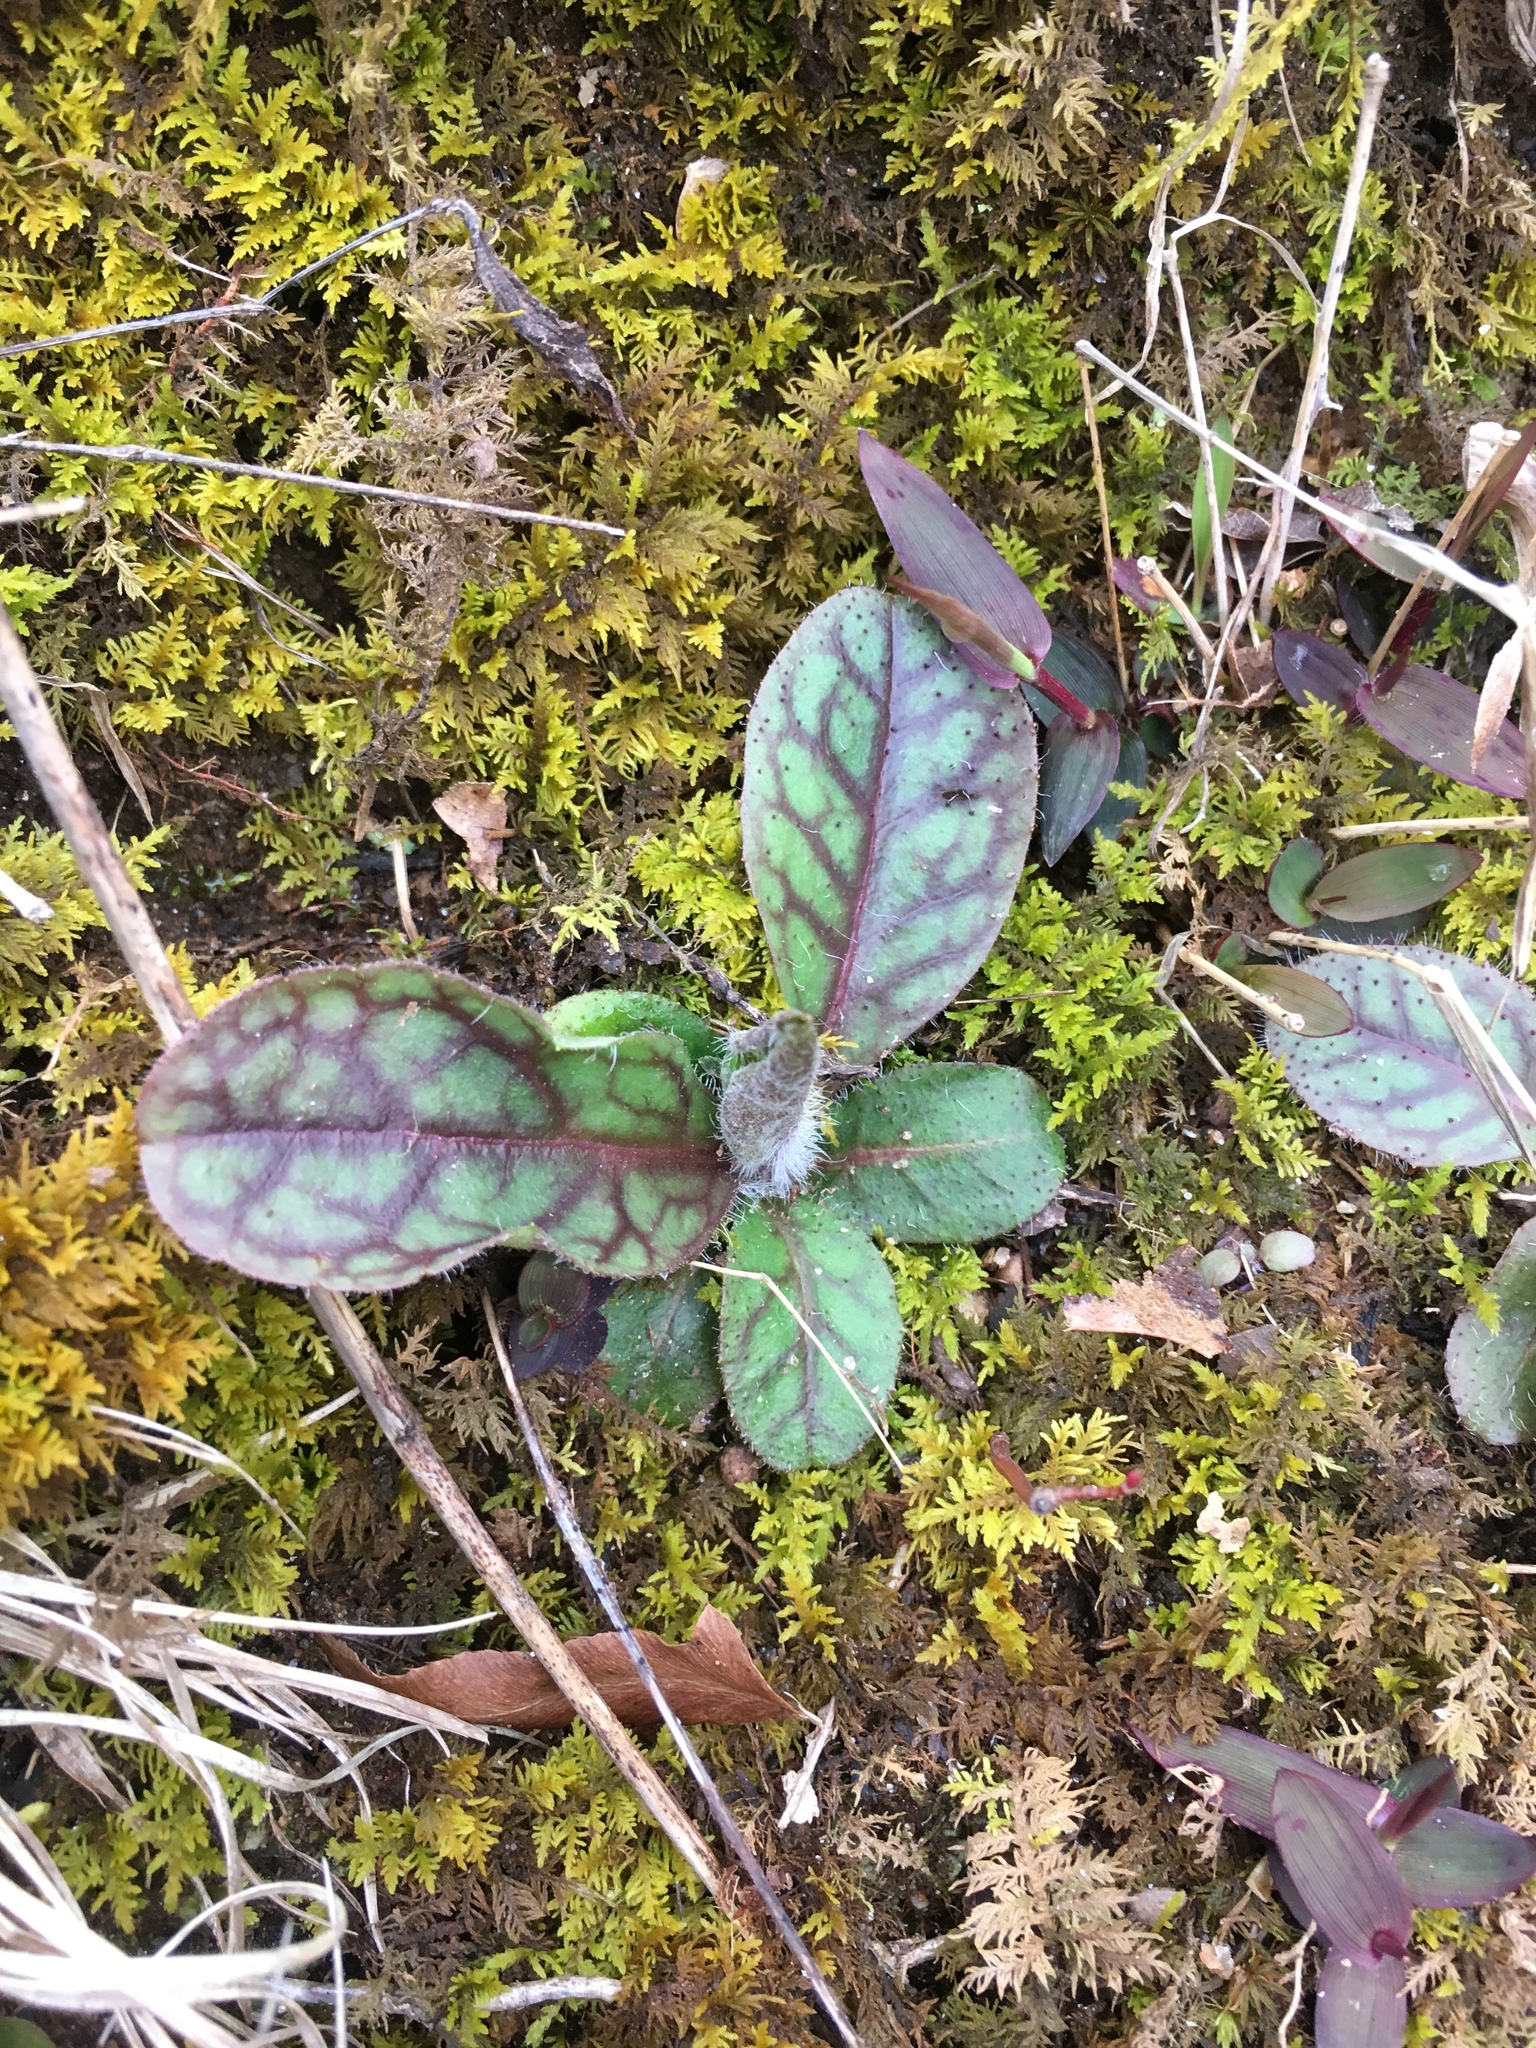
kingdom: Plantae
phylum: Tracheophyta
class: Magnoliopsida
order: Asterales
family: Asteraceae
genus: Hieracium
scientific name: Hieracium venosum
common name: Rattlesnake hawkweed
